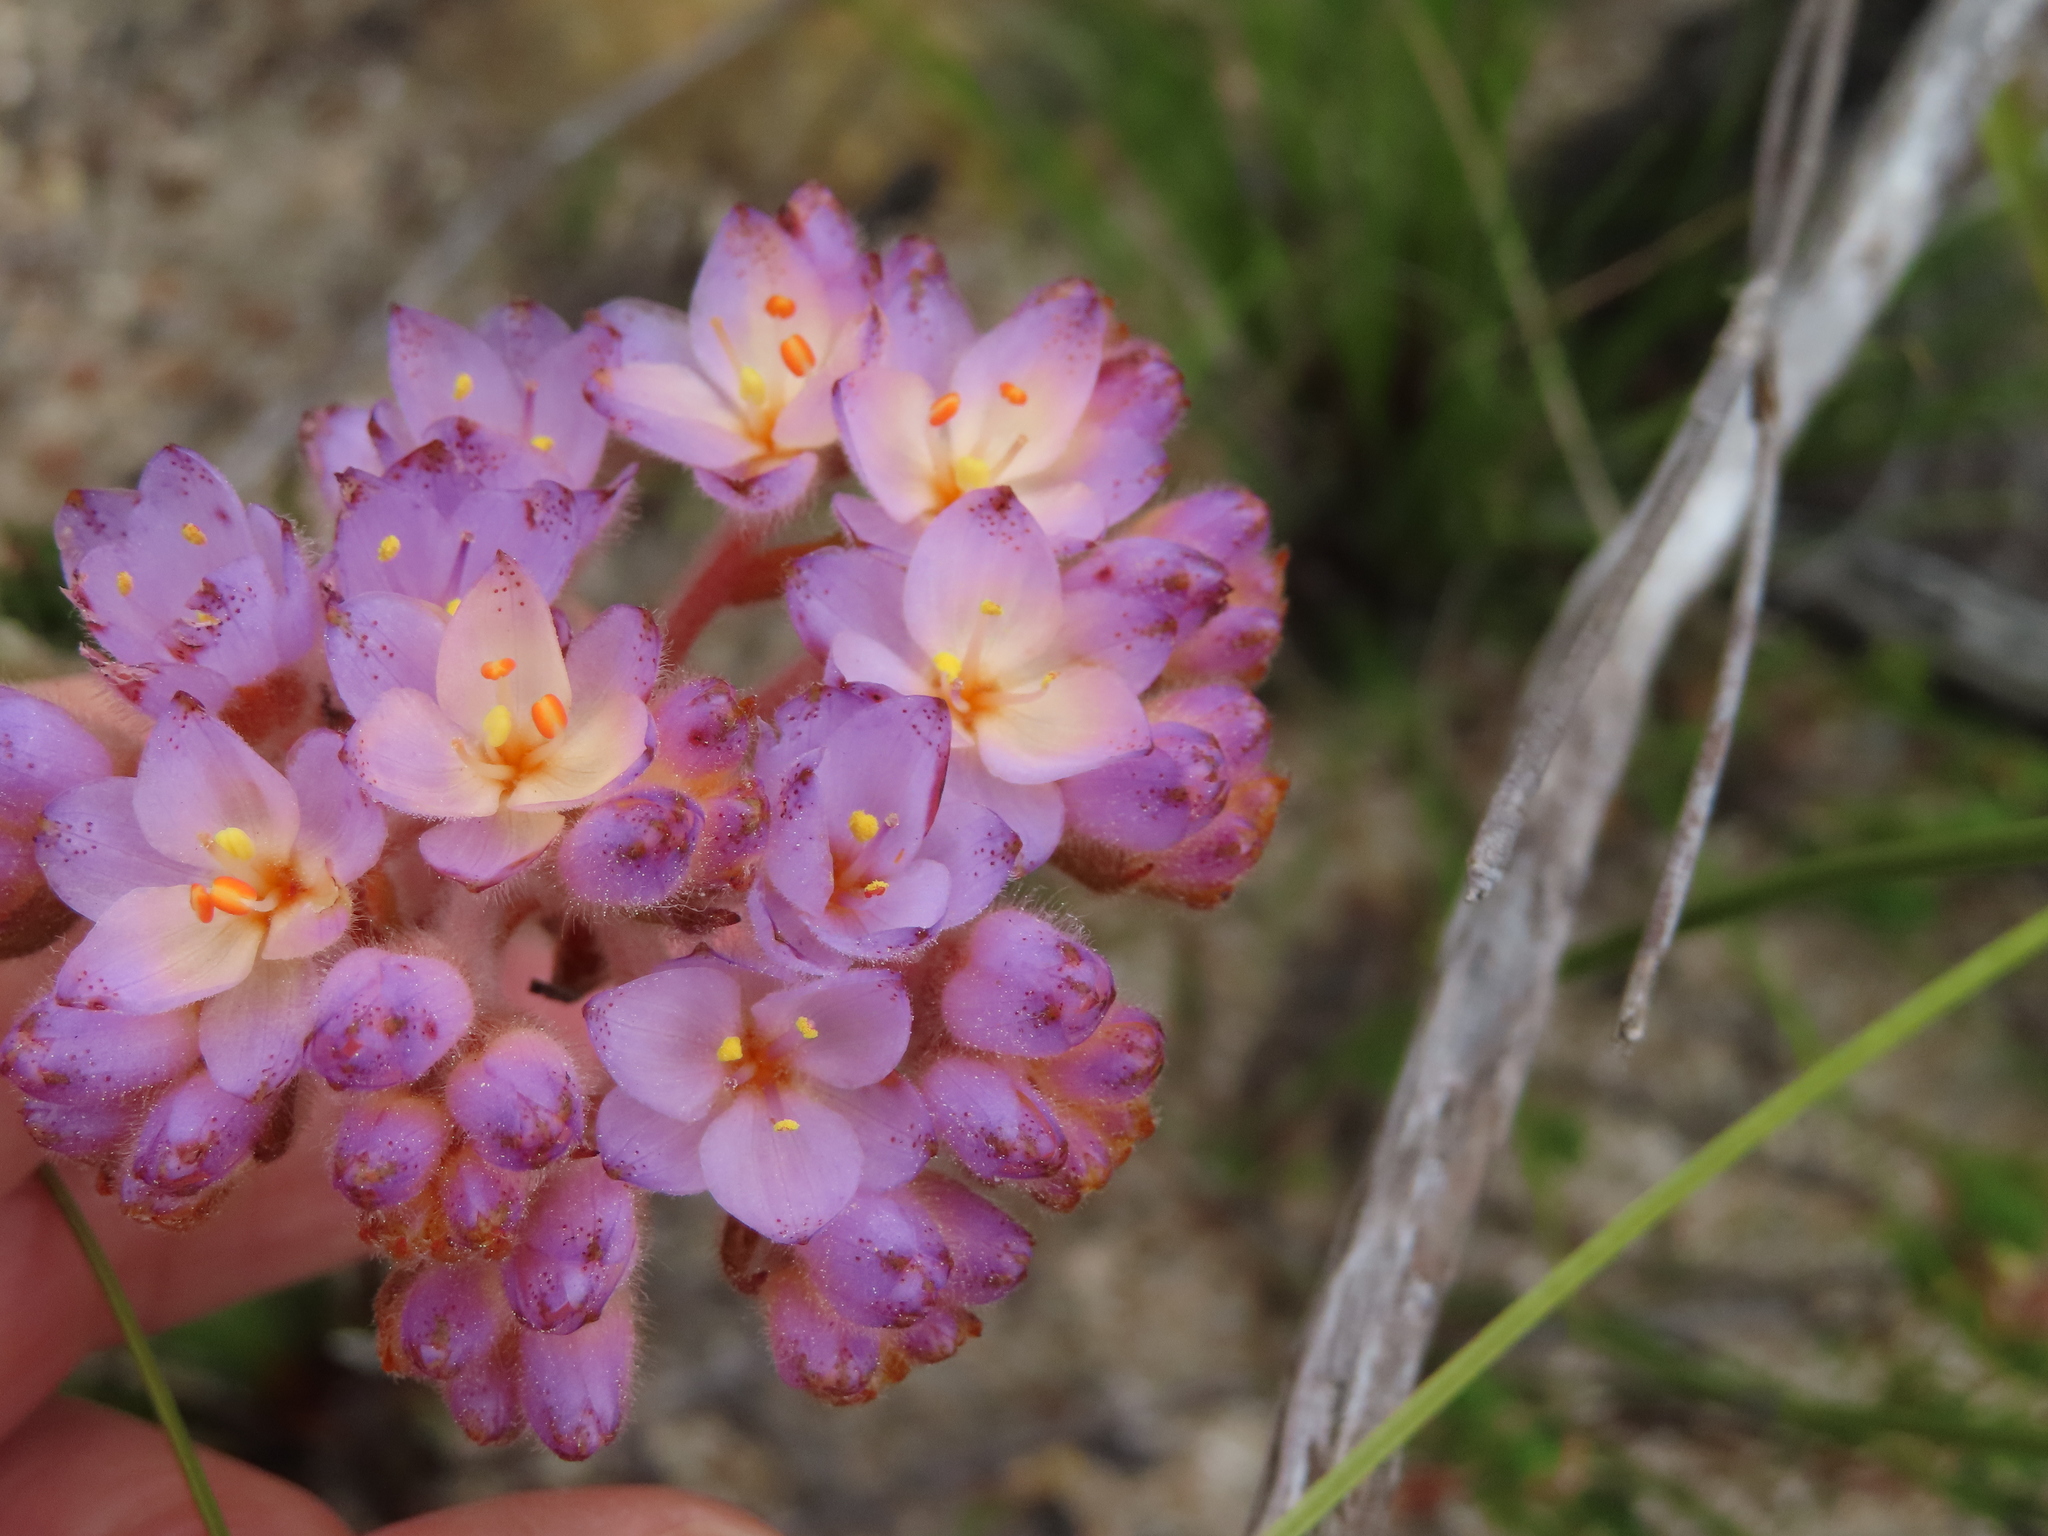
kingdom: Plantae
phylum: Tracheophyta
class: Liliopsida
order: Commelinales
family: Haemodoraceae
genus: Dilatris
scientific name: Dilatris corymbosa
